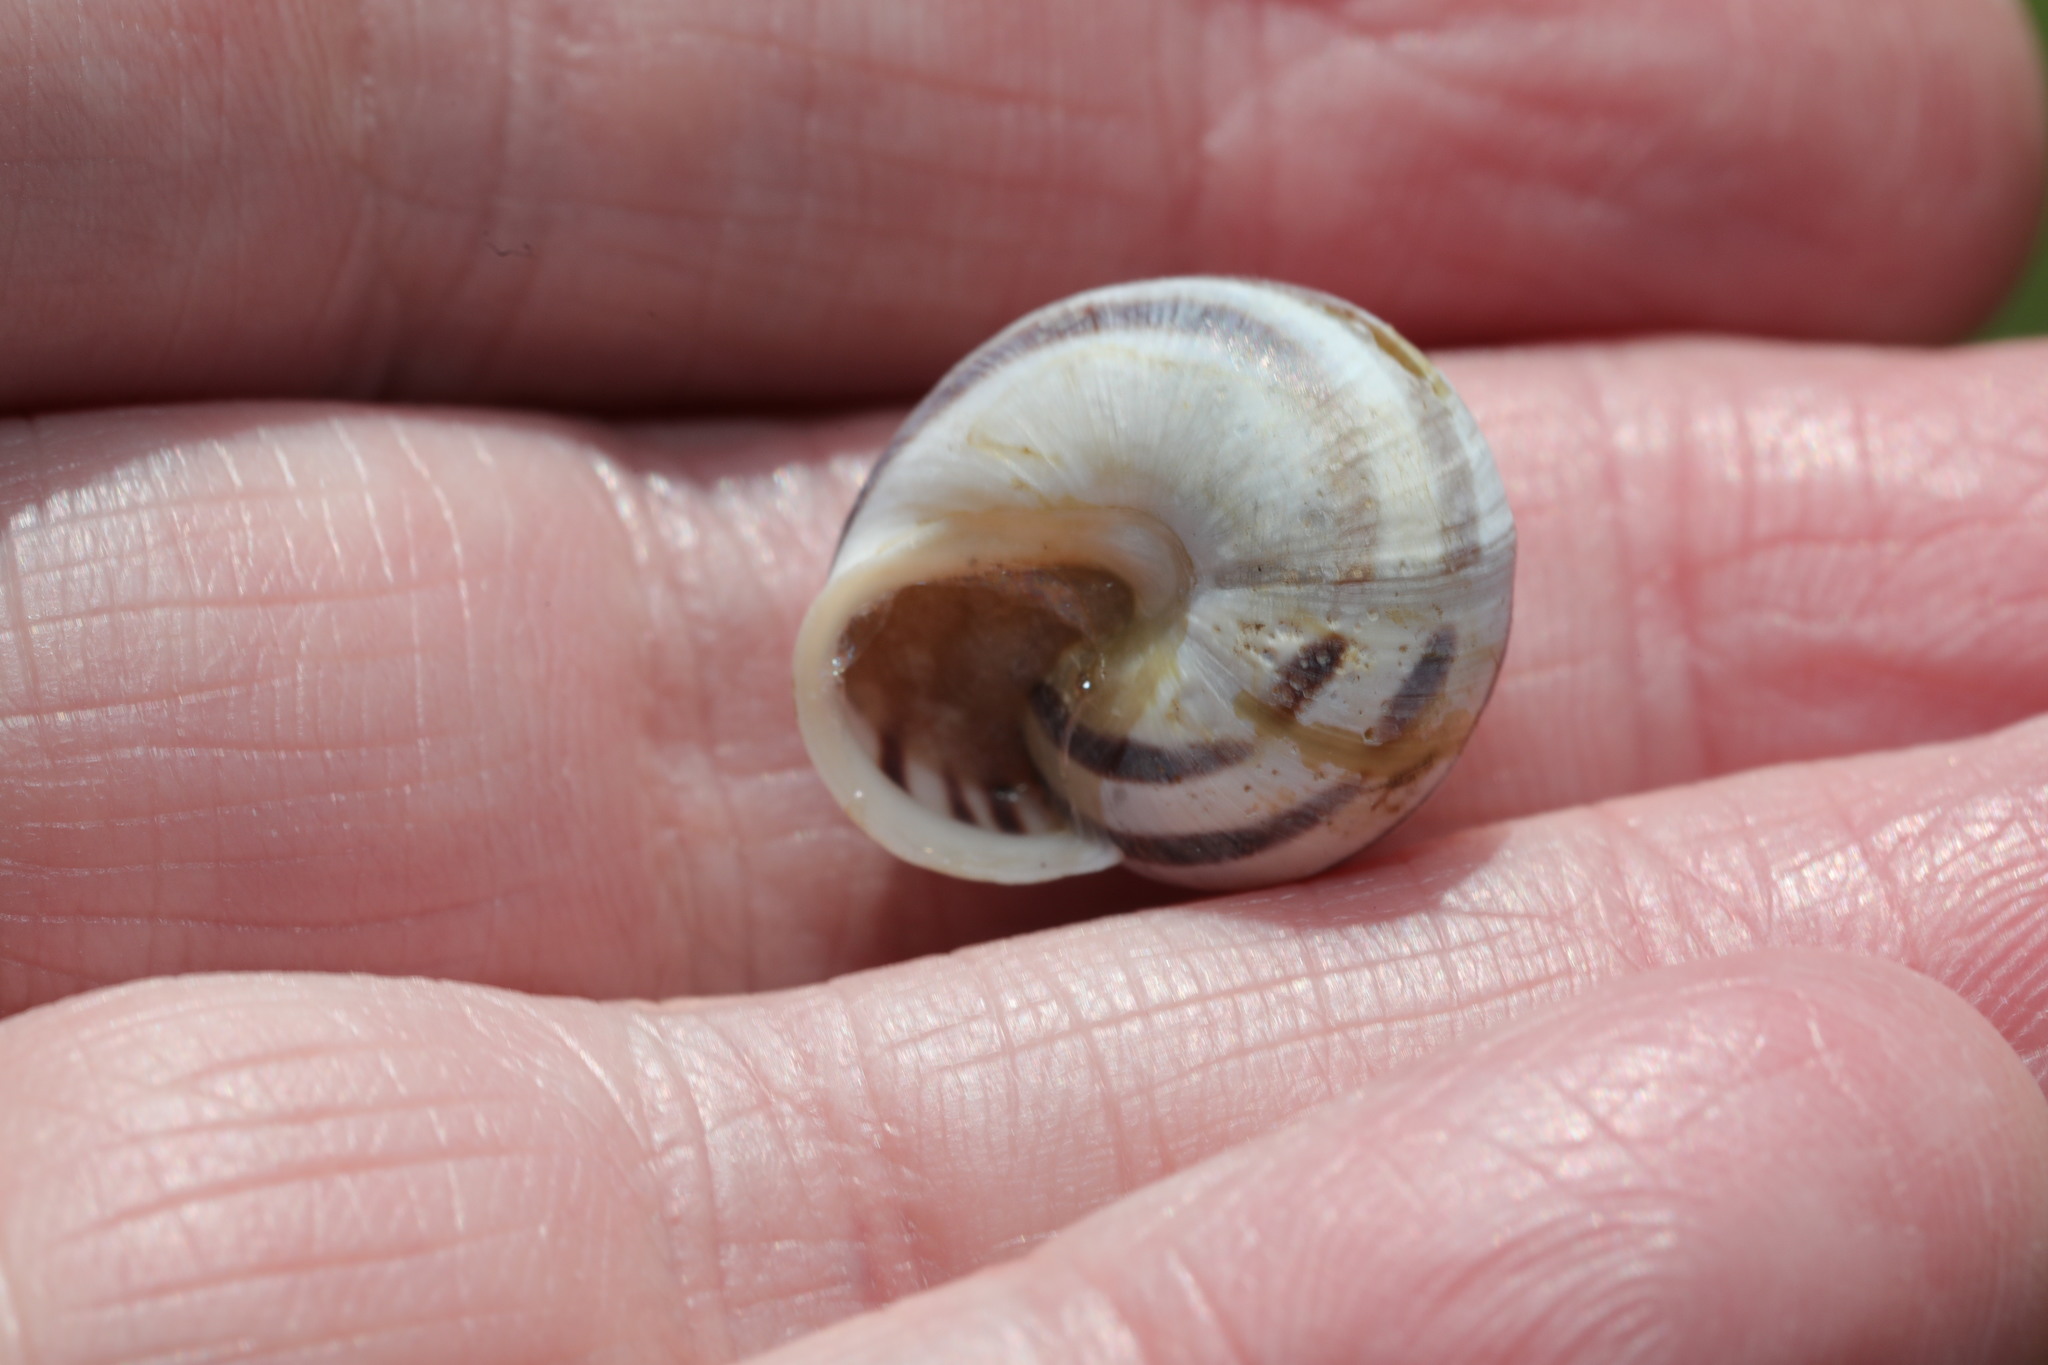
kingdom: Animalia
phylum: Mollusca
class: Gastropoda
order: Stylommatophora
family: Helicidae
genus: Cepaea
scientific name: Cepaea hortensis
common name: White-lip gardensnail
